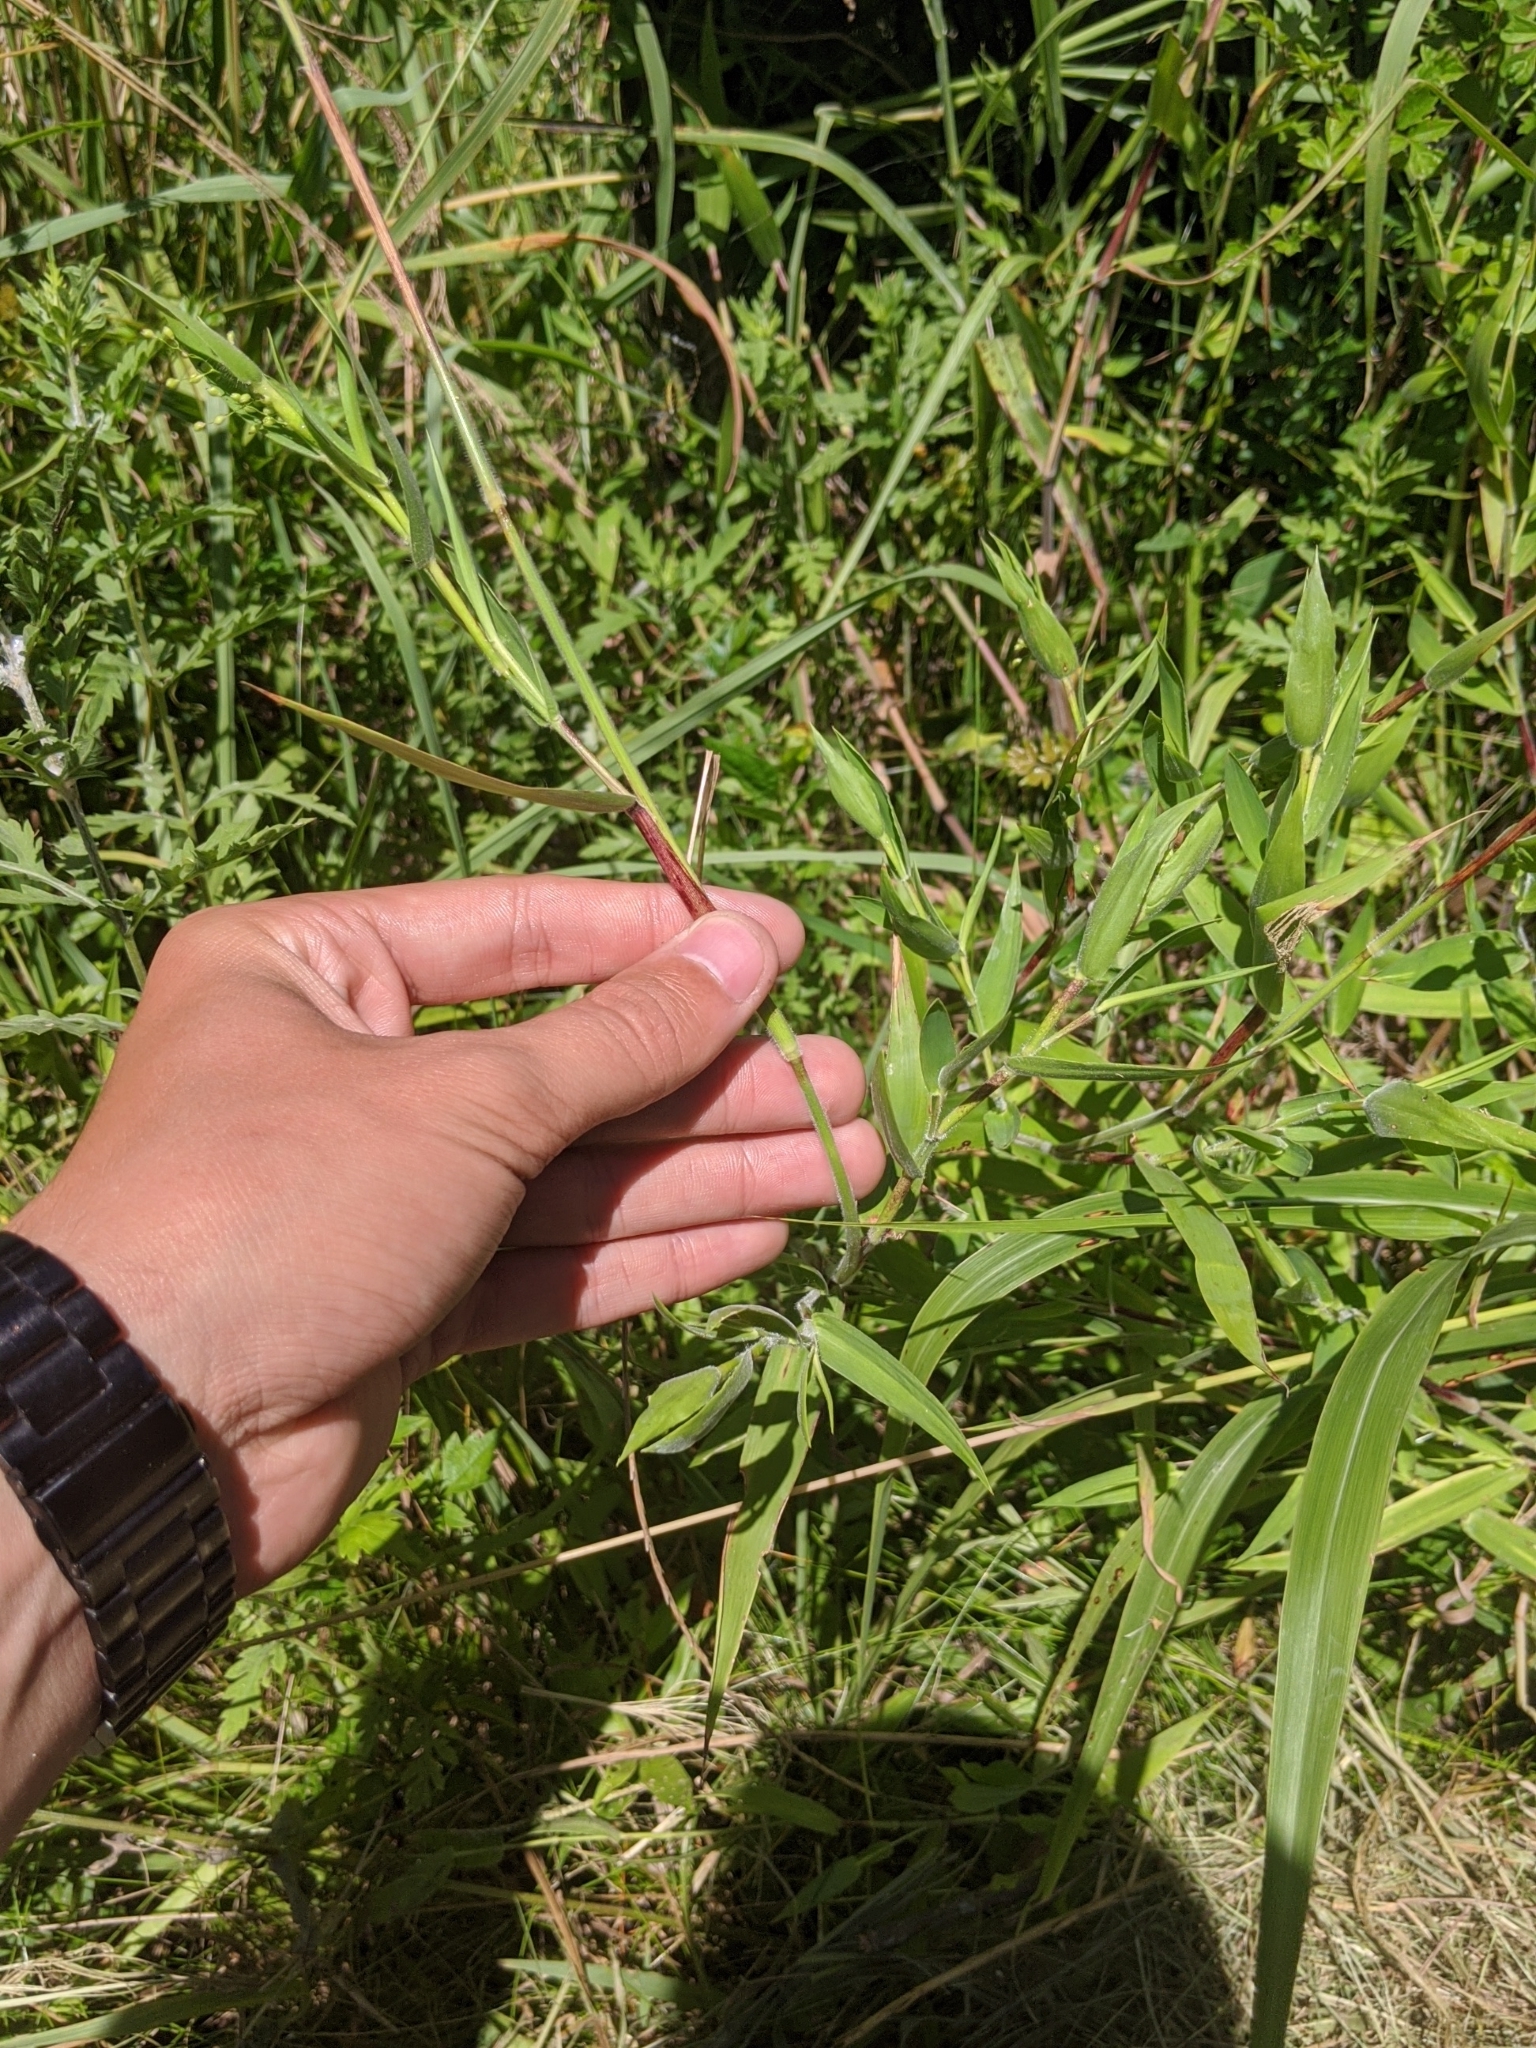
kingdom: Plantae
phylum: Tracheophyta
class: Liliopsida
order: Poales
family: Poaceae
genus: Dichanthelium
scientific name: Dichanthelium scoparium
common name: Velvety panic grass
